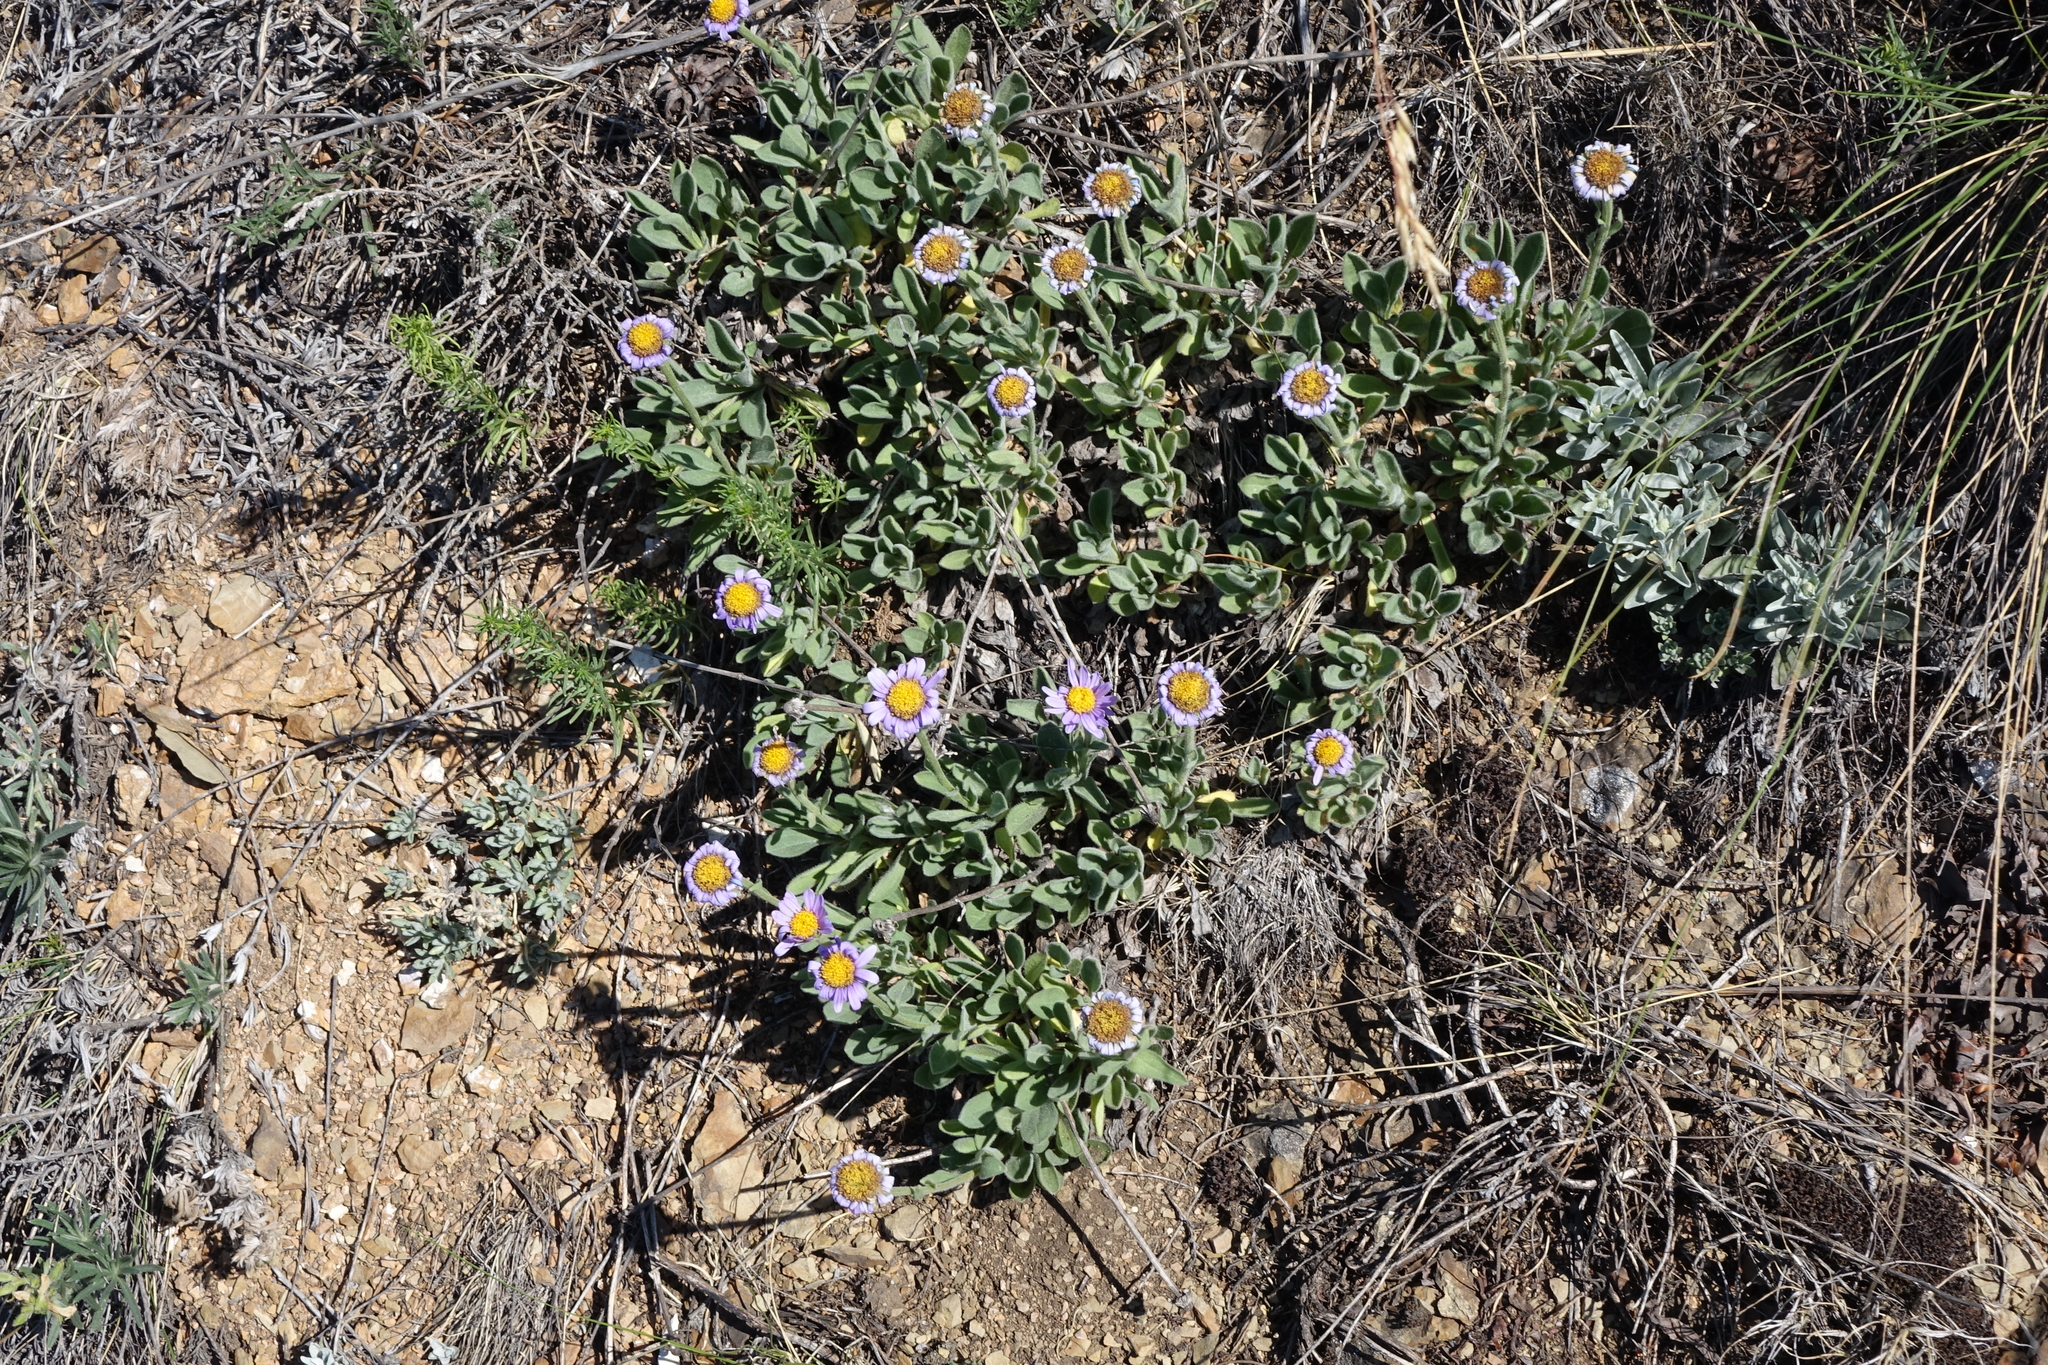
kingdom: Plantae
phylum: Tracheophyta
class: Magnoliopsida
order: Asterales
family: Asteraceae
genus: Aster
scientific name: Aster alpinus
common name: Alpine aster
